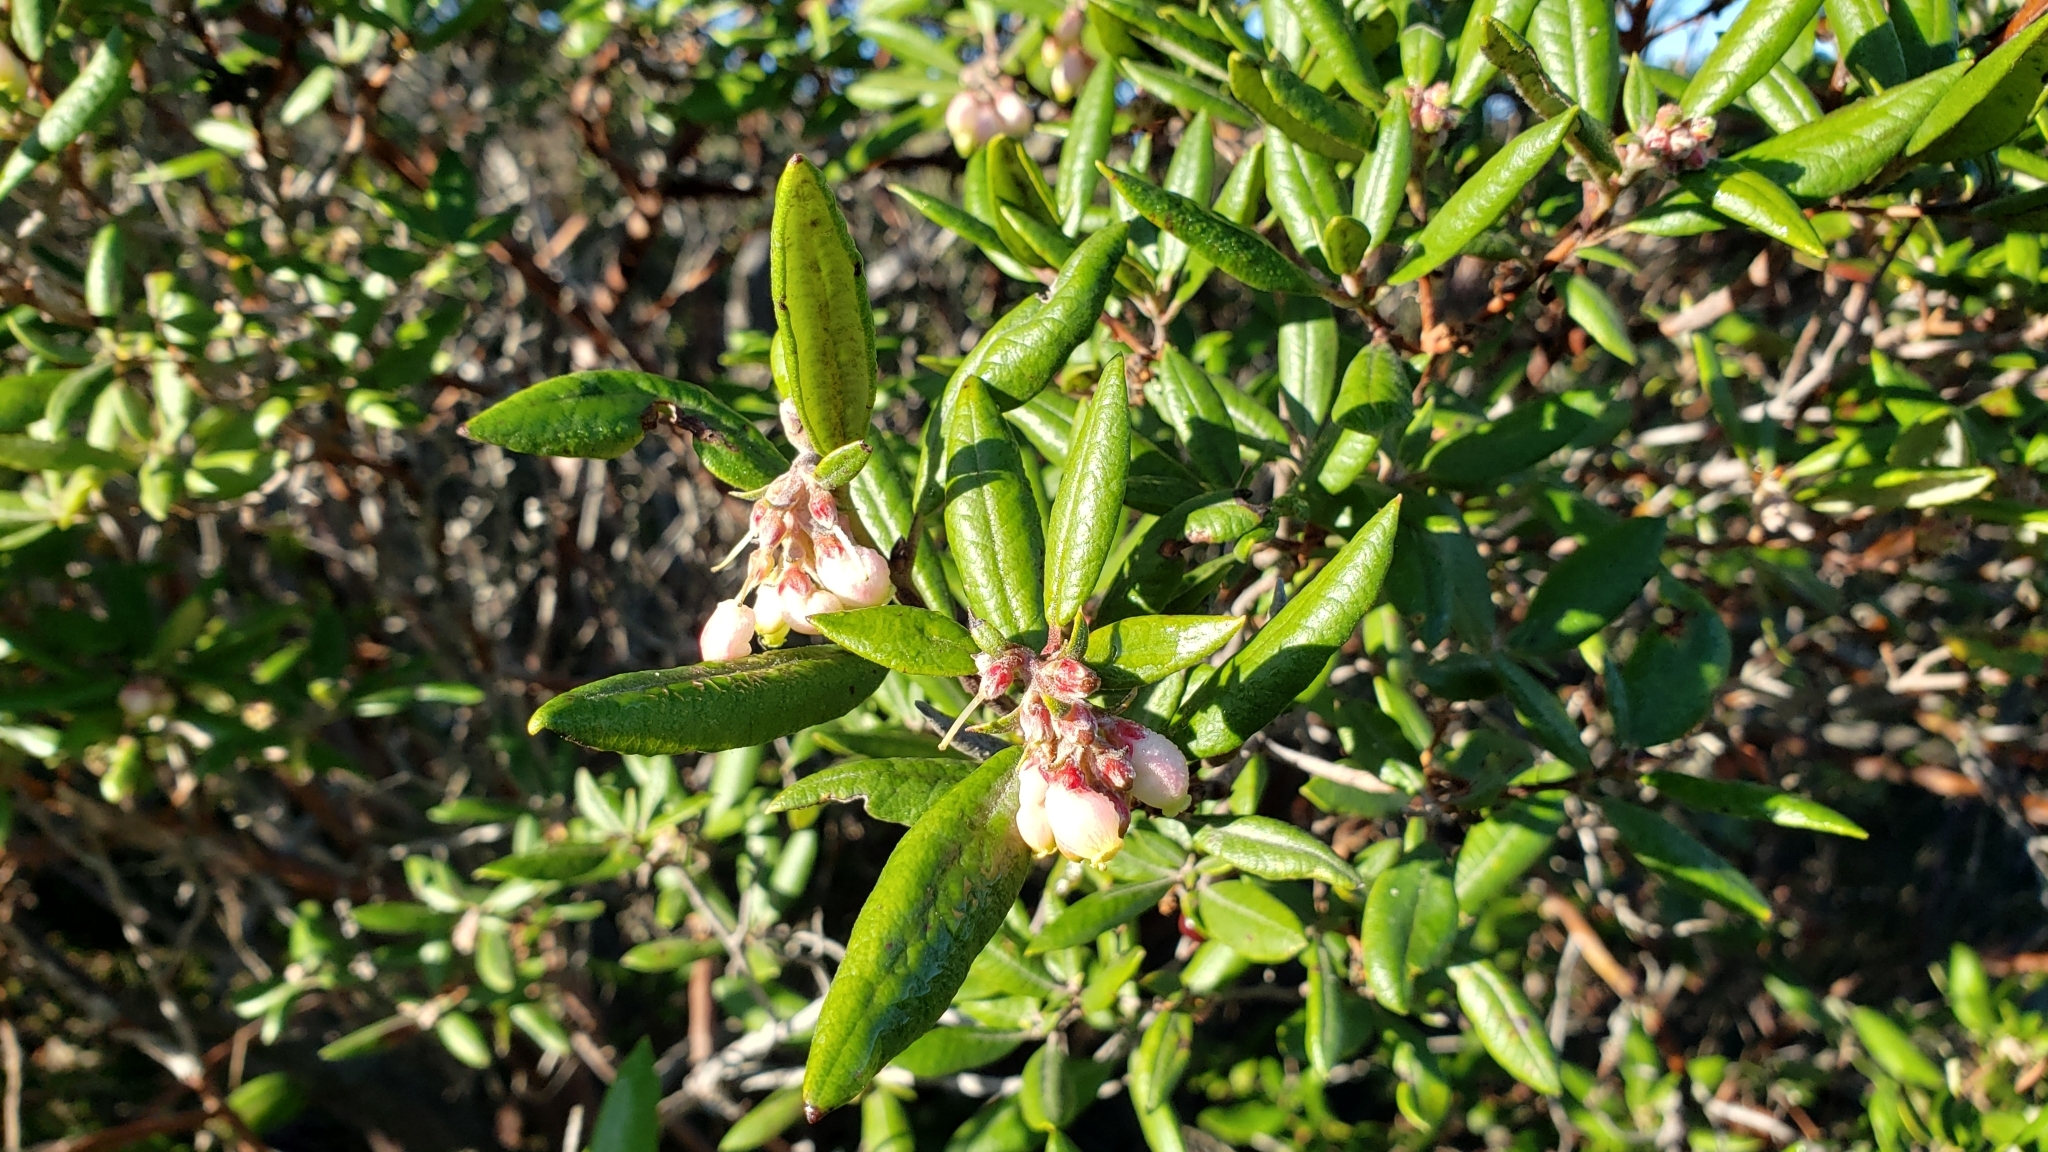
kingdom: Plantae
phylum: Tracheophyta
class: Magnoliopsida
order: Ericales
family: Ericaceae
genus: Arctostaphylos
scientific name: Arctostaphylos bicolor
